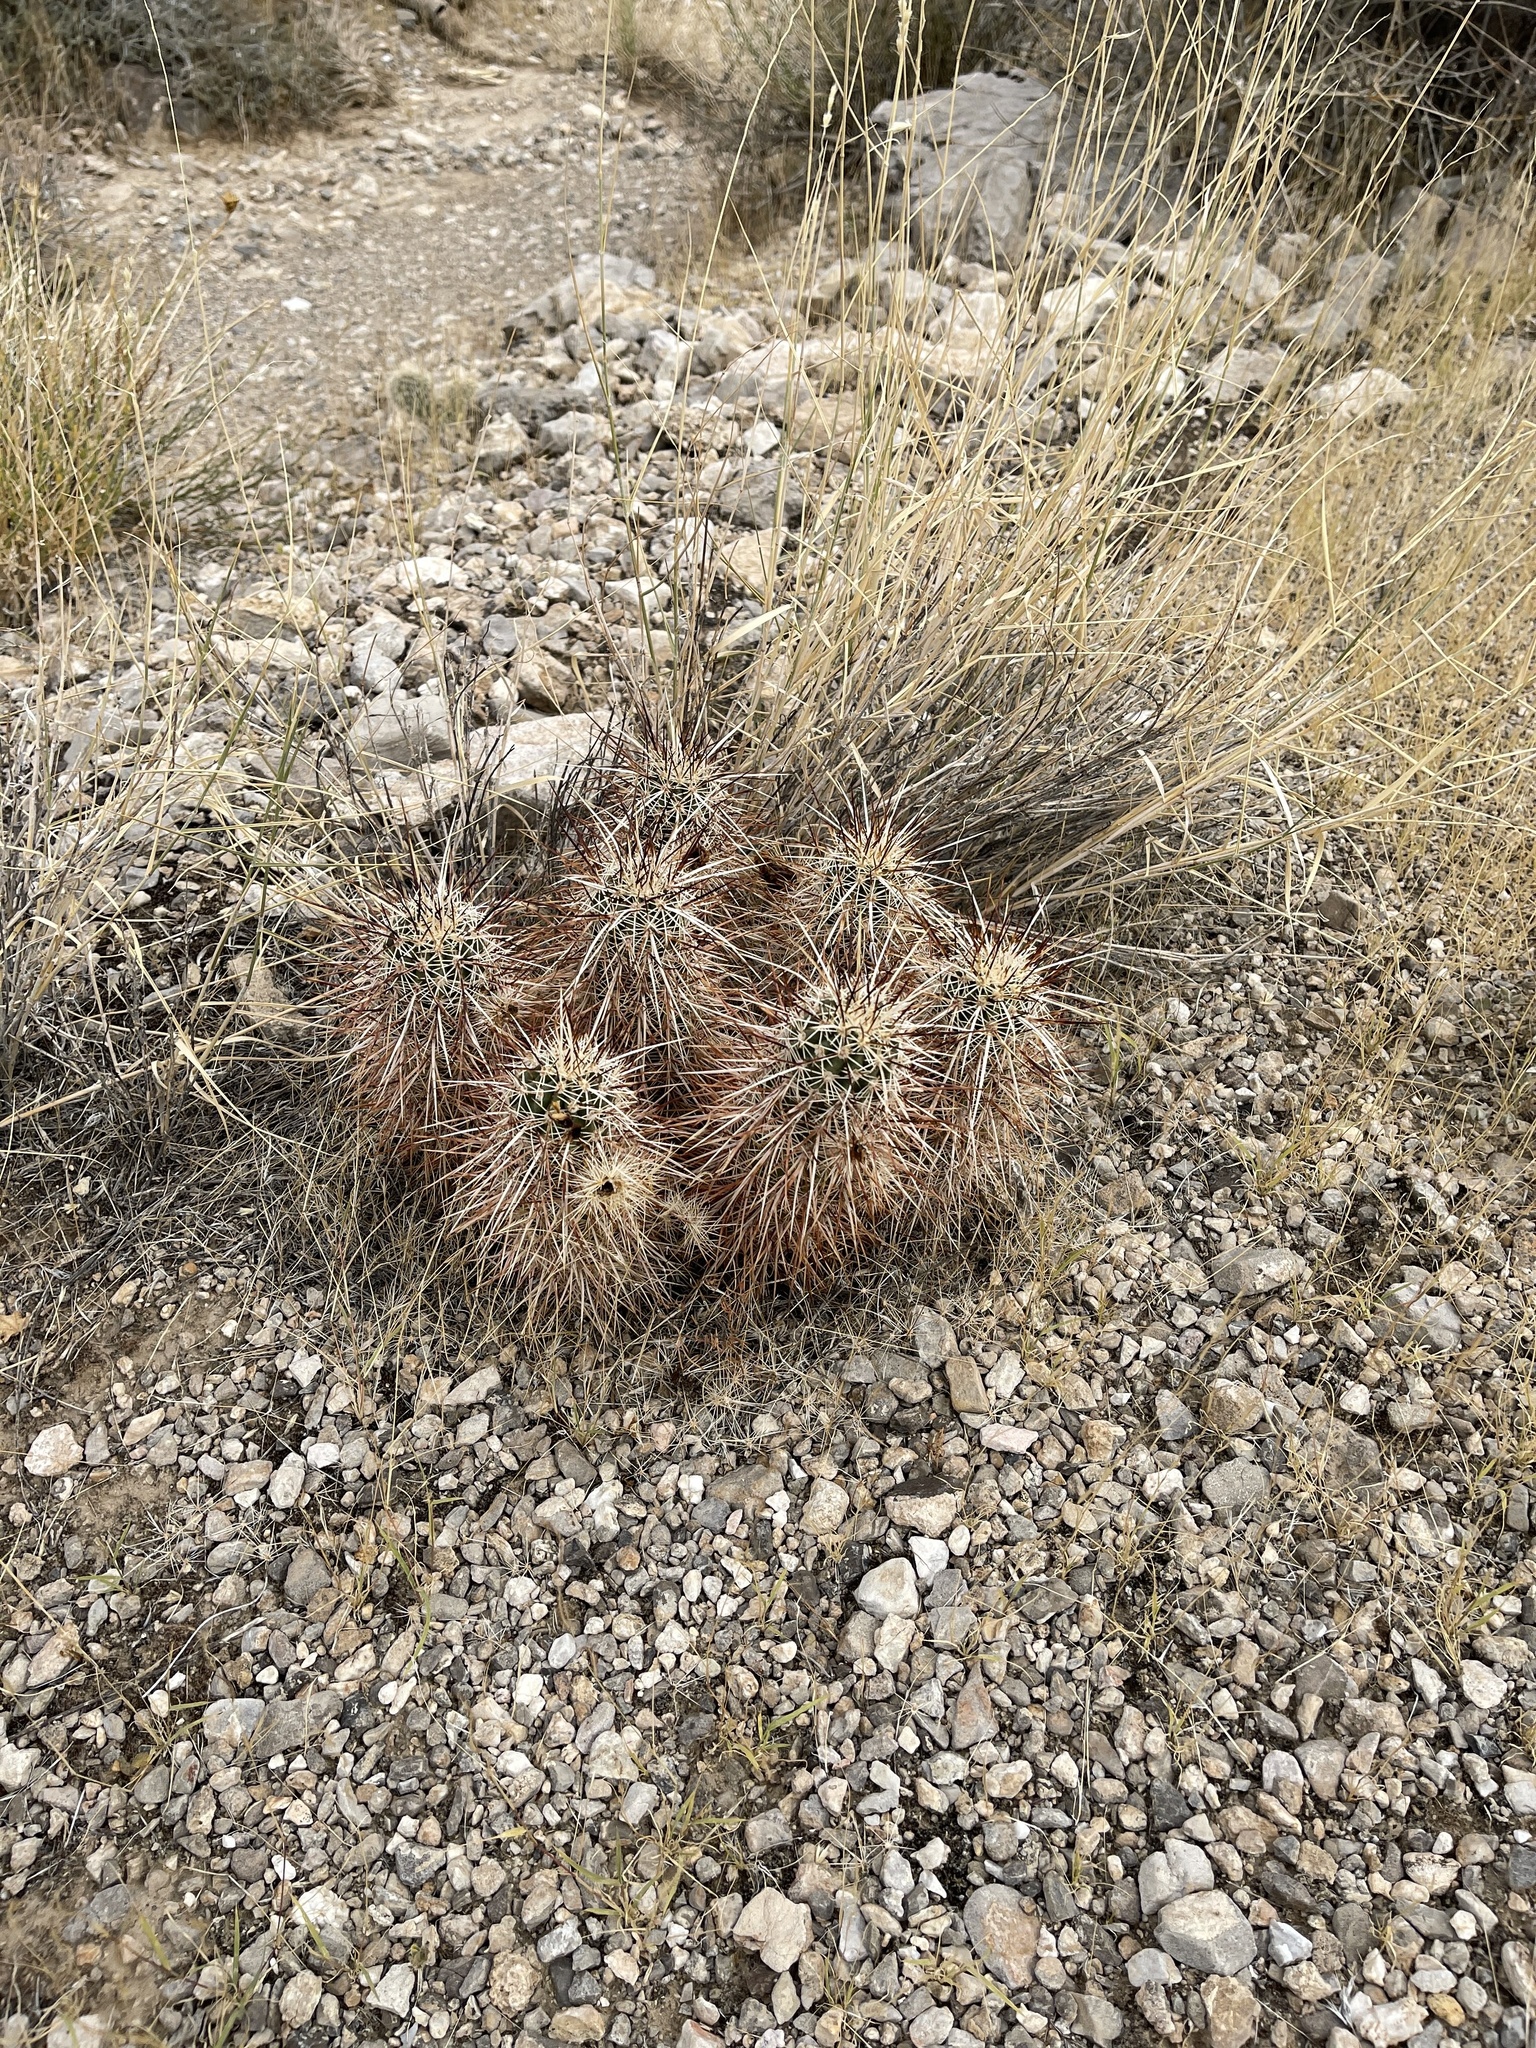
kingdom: Plantae
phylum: Tracheophyta
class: Magnoliopsida
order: Caryophyllales
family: Cactaceae
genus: Echinocereus
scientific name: Echinocereus engelmannii
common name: Engelmann's hedgehog cactus
